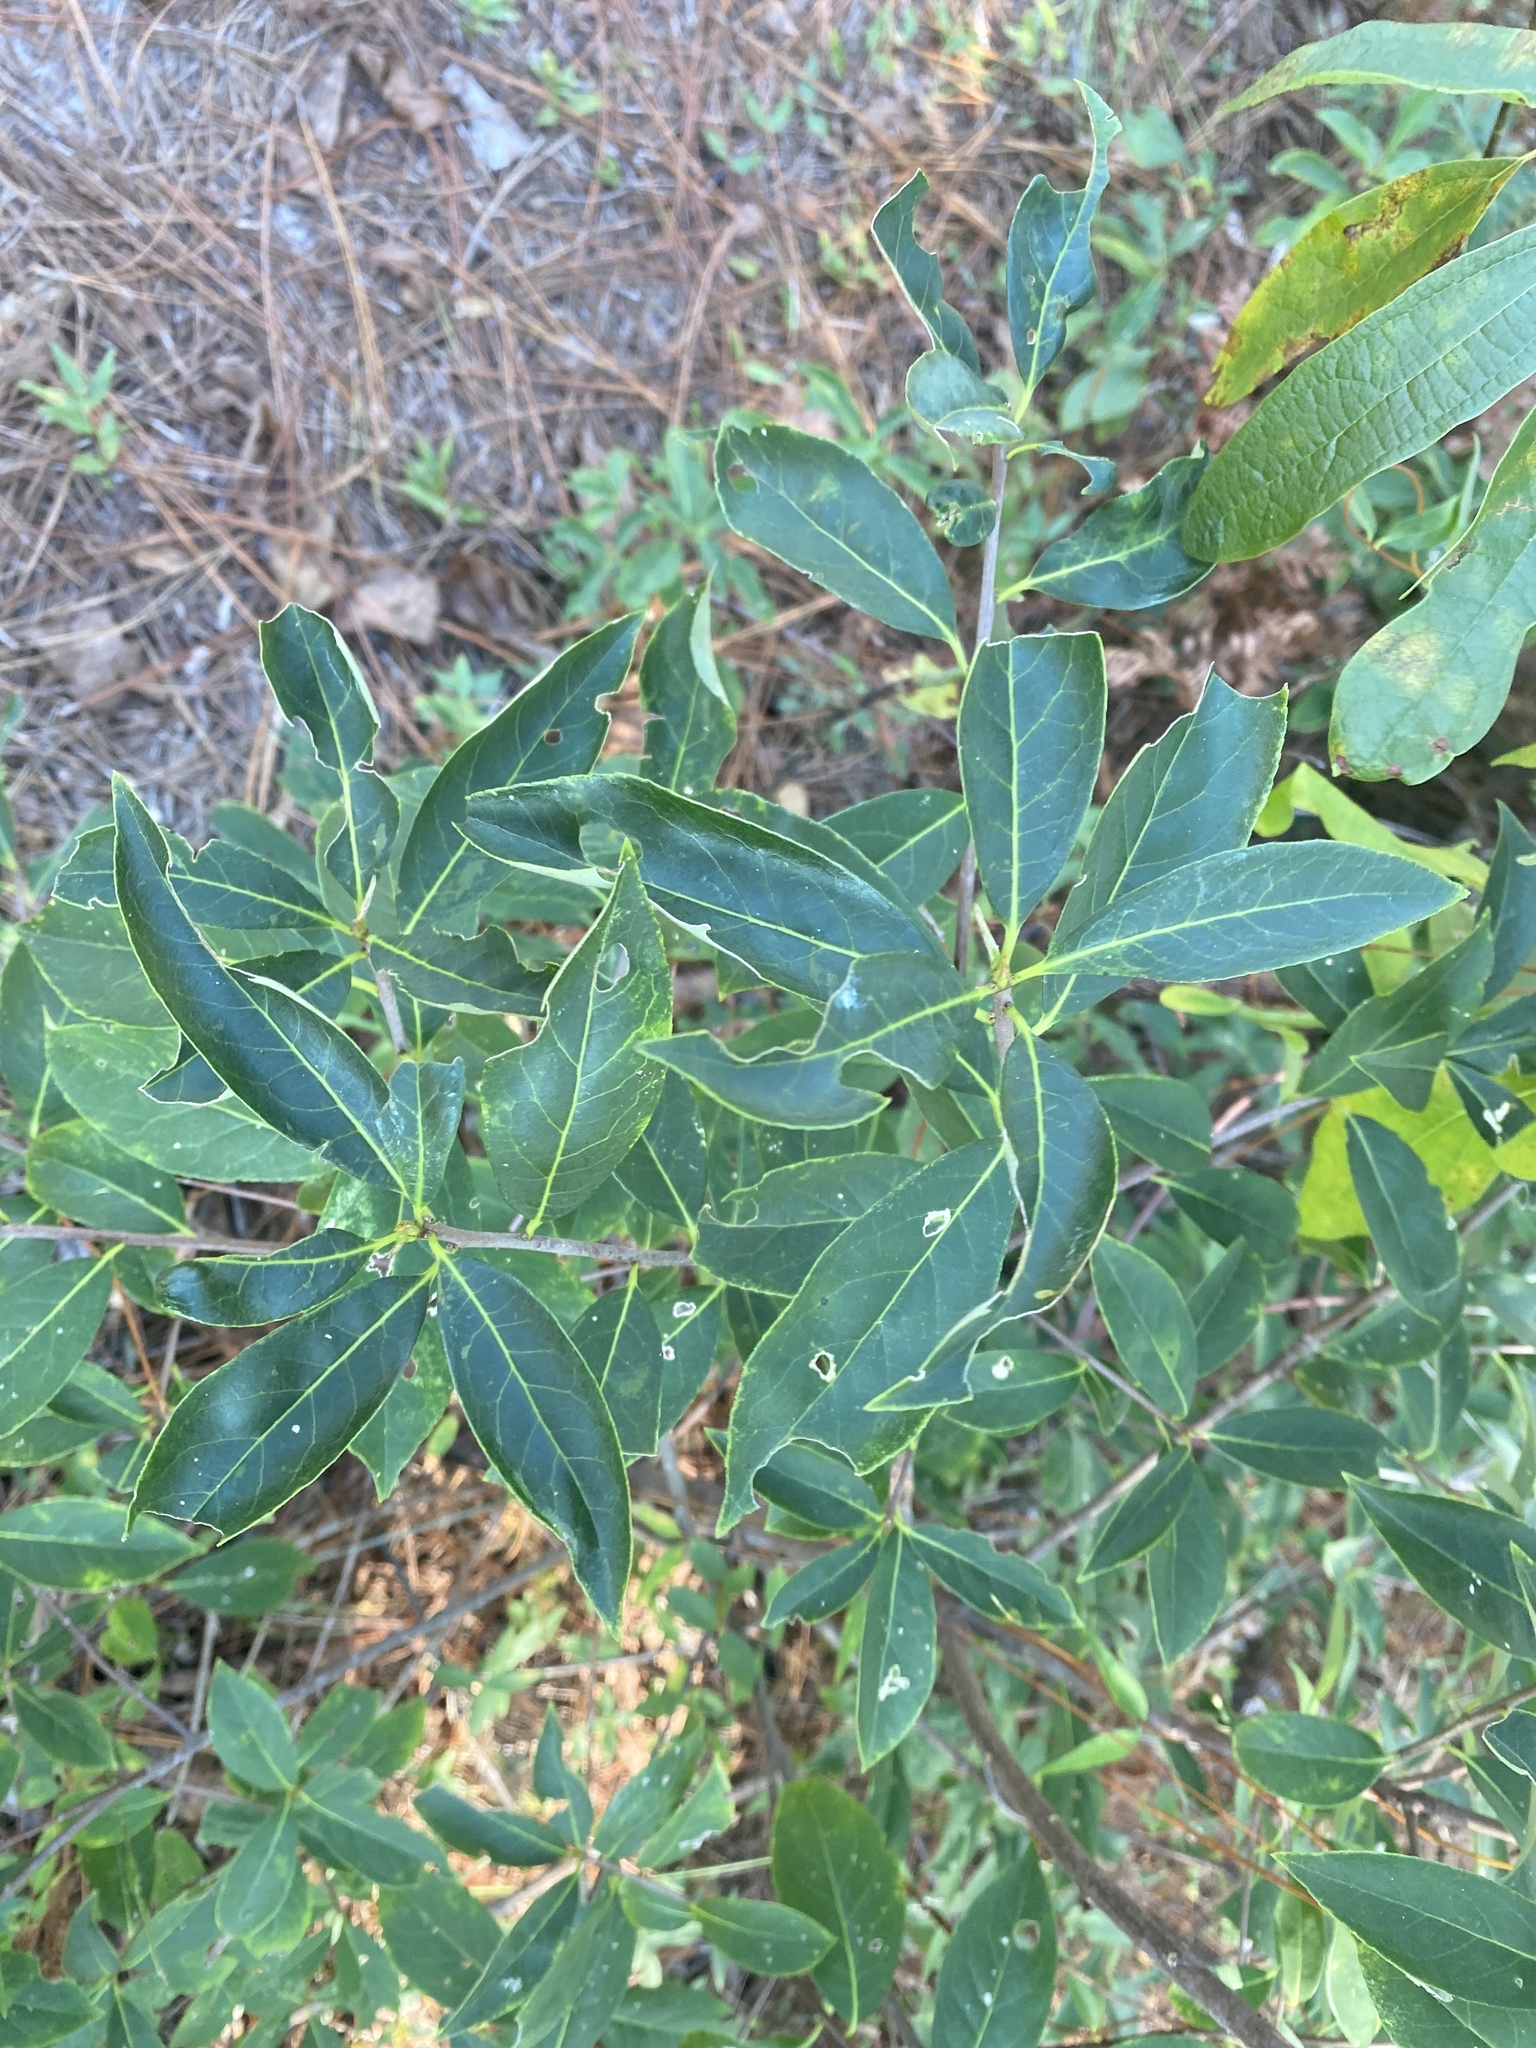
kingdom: Plantae
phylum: Tracheophyta
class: Magnoliopsida
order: Ericales
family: Symplocaceae
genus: Symplocos
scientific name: Symplocos tinctoria
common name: Horse-sugar
